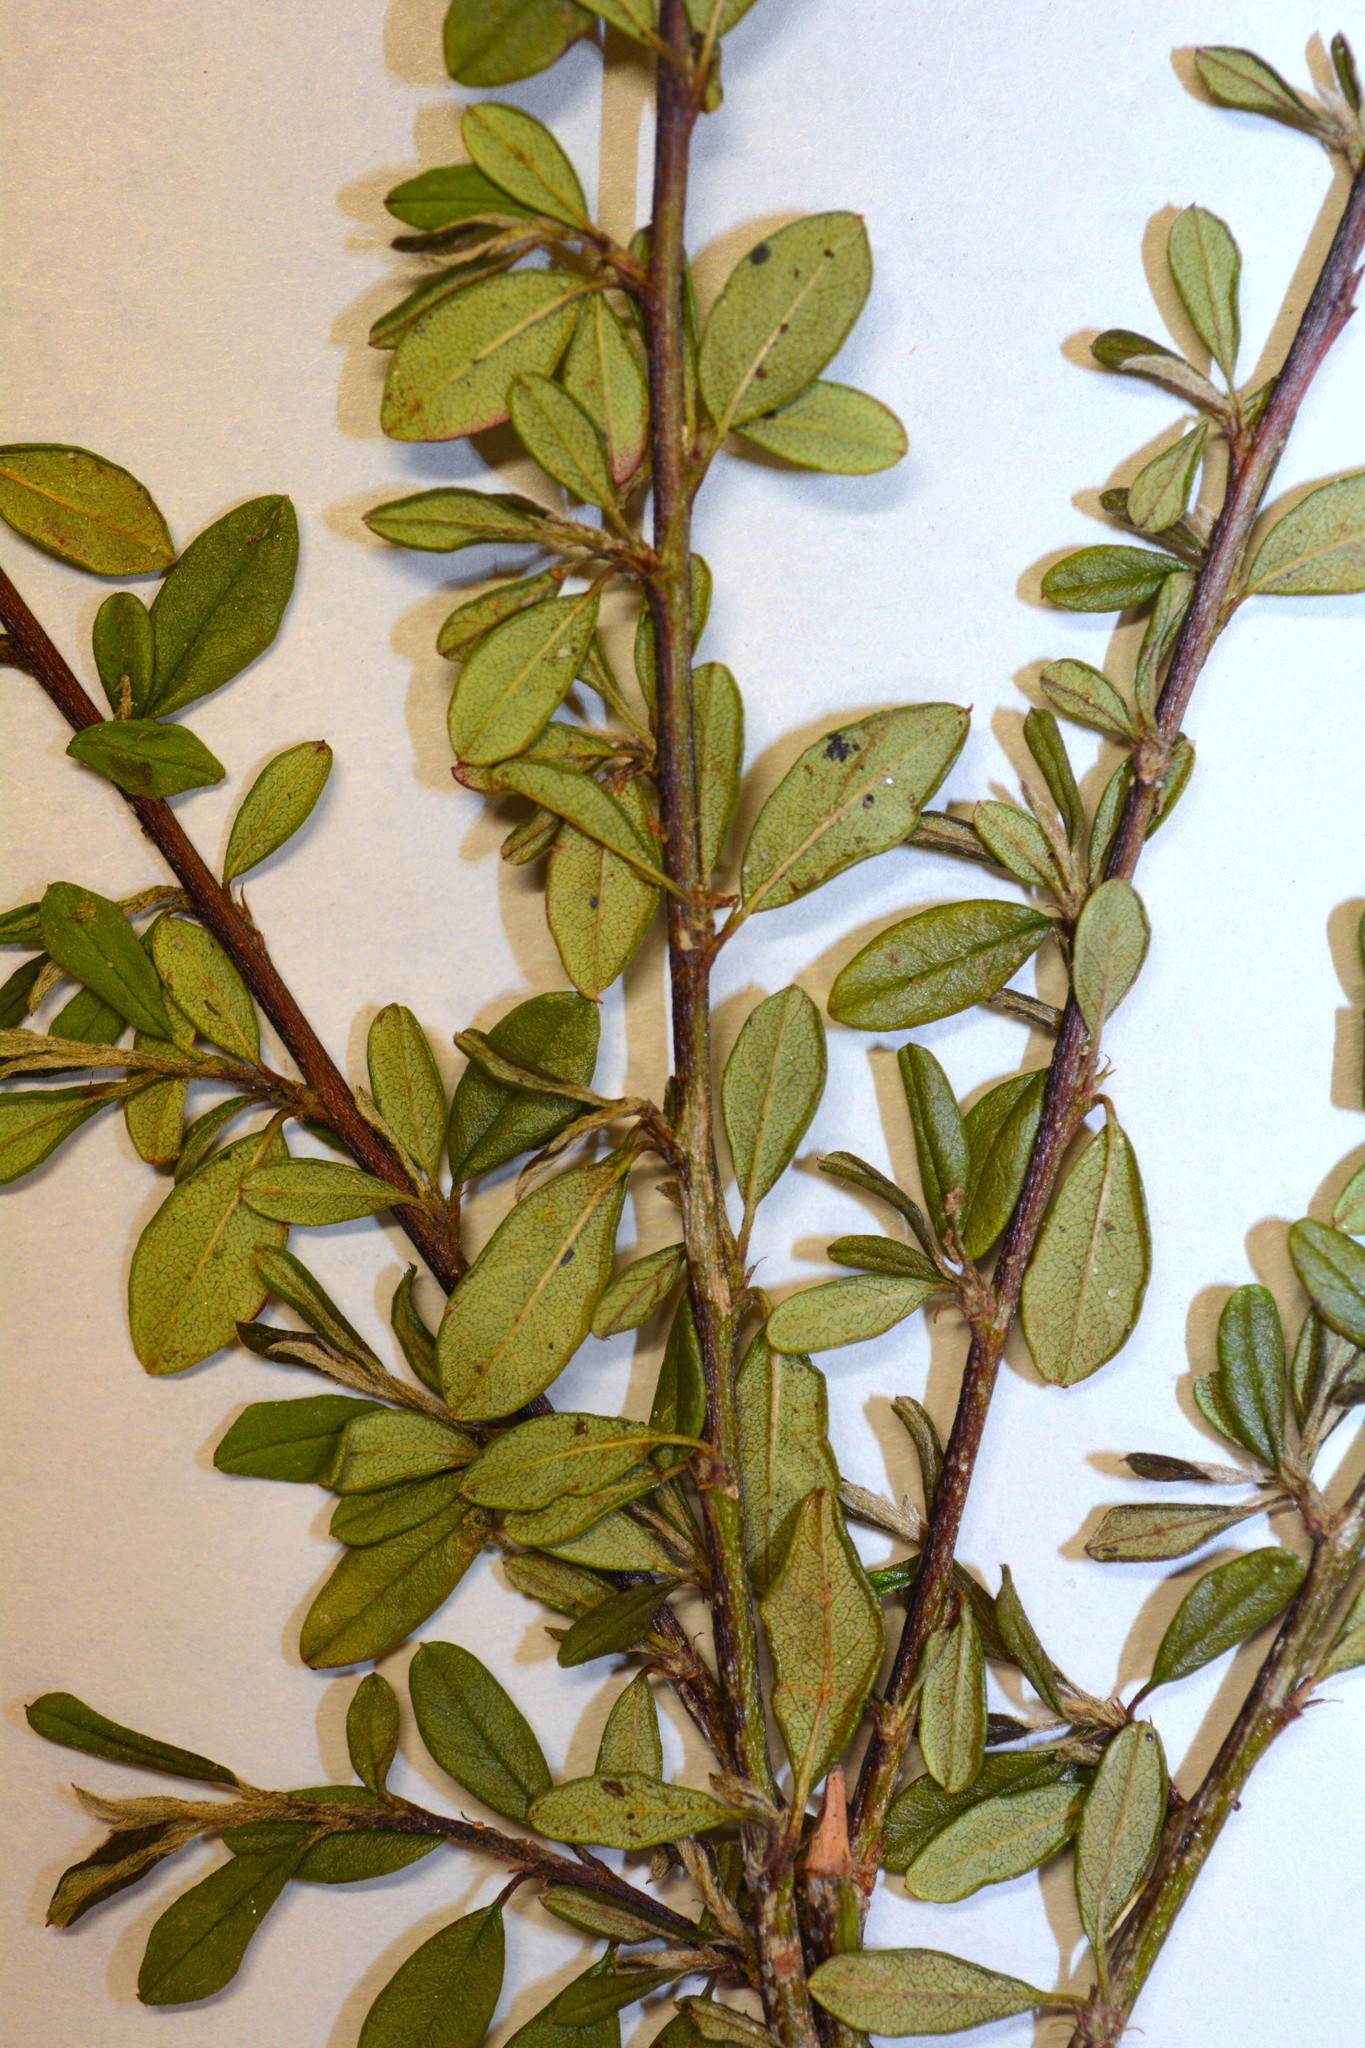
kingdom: Plantae
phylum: Tracheophyta
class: Magnoliopsida
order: Rosales
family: Rosaceae
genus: Cotoneaster
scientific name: Cotoneaster simonsii
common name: Himalayan cotoneaster
